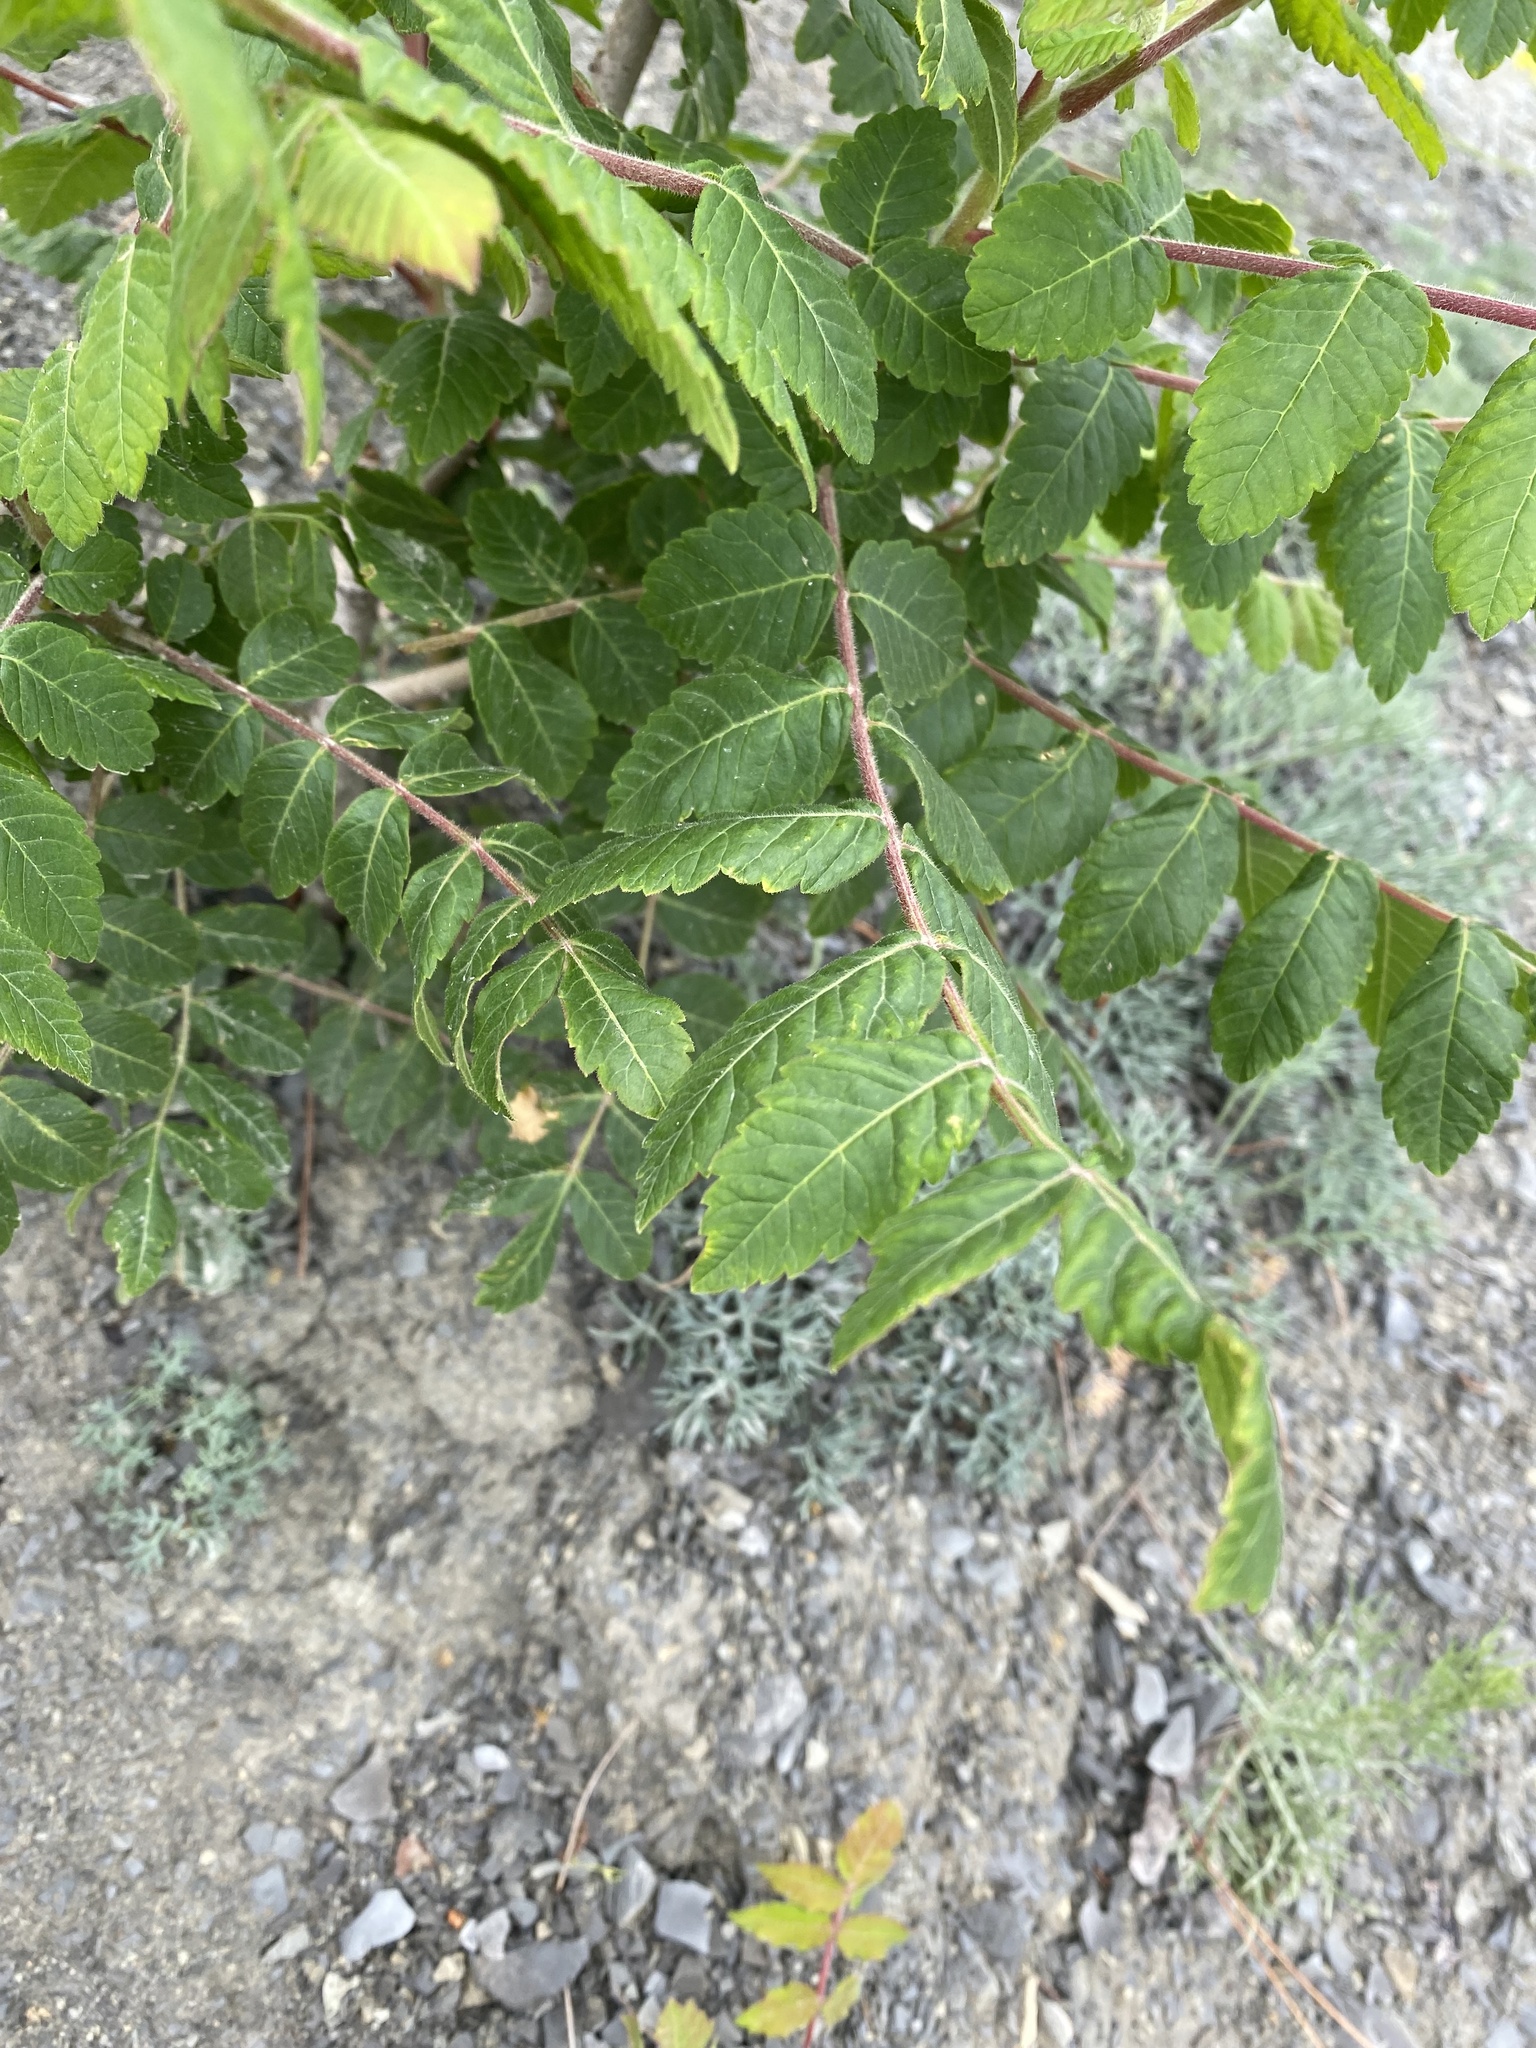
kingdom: Plantae
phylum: Tracheophyta
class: Magnoliopsida
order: Sapindales
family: Anacardiaceae
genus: Rhus
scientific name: Rhus coriaria
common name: Tanner's sumach
